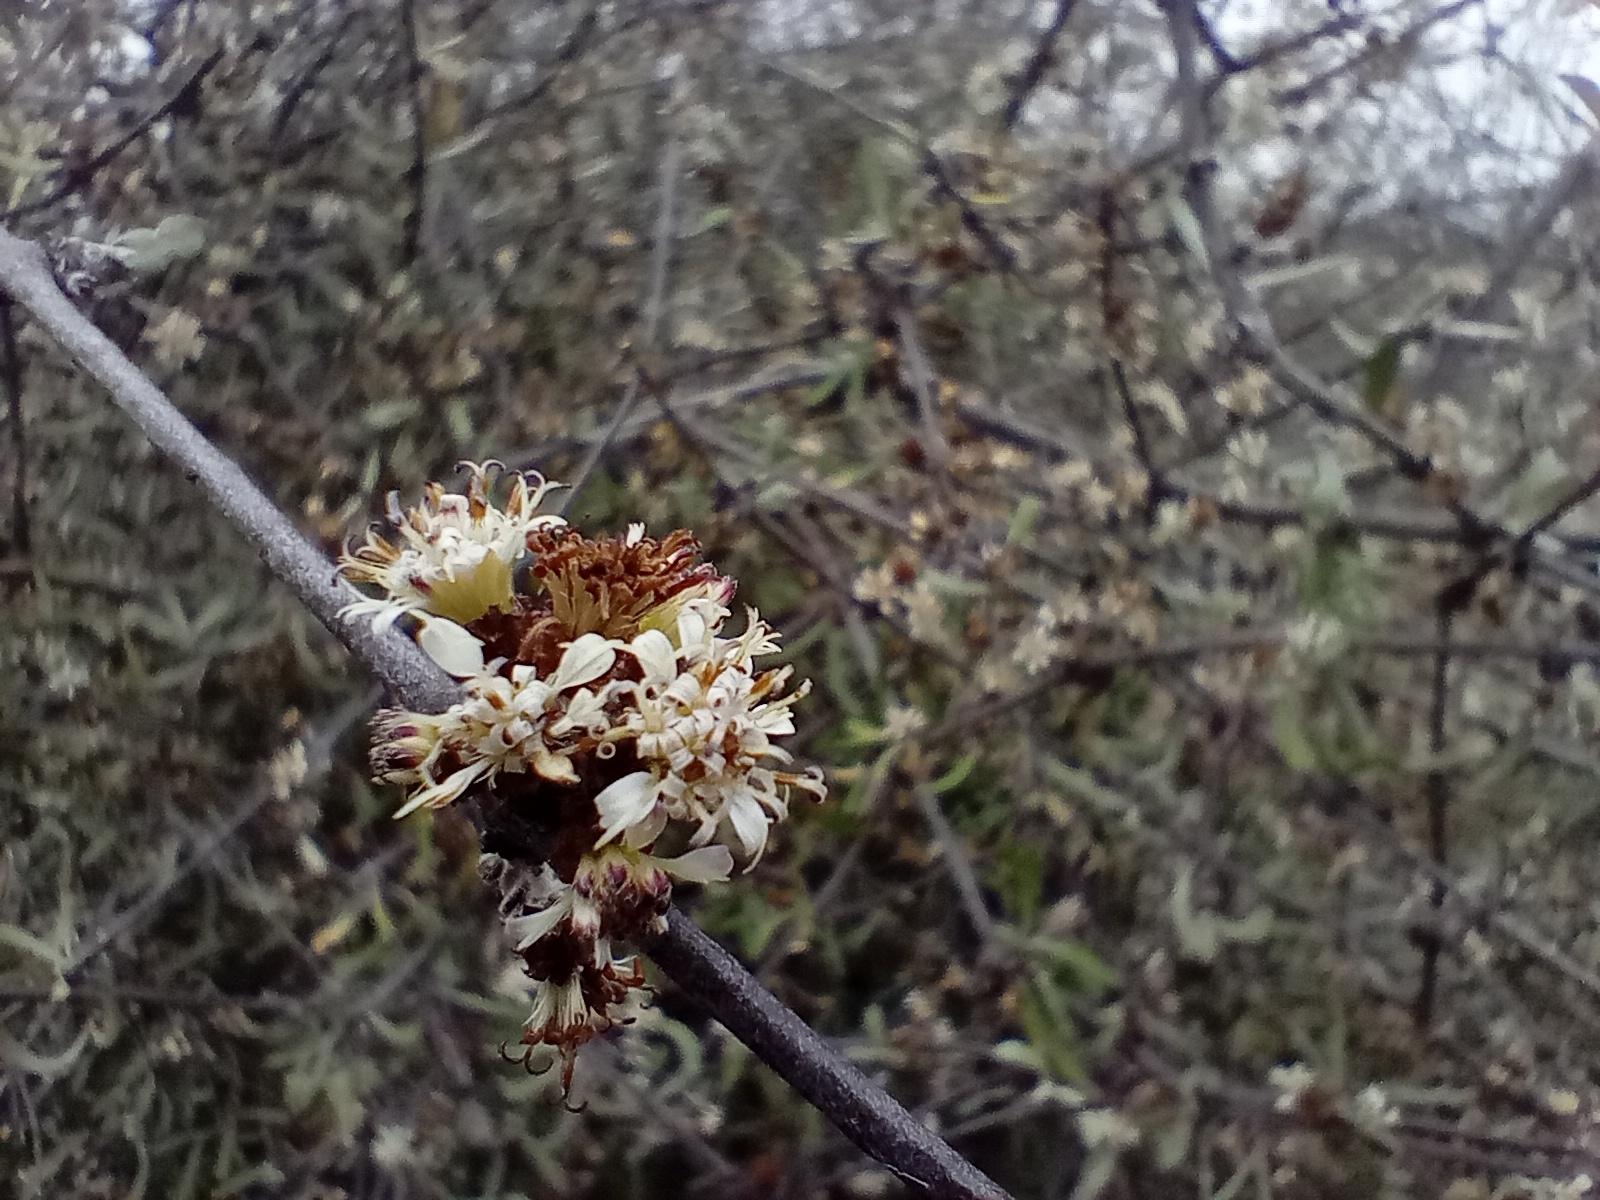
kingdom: Plantae
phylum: Tracheophyta
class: Magnoliopsida
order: Asterales
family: Asteraceae
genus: Olearia
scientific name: Olearia odorata
